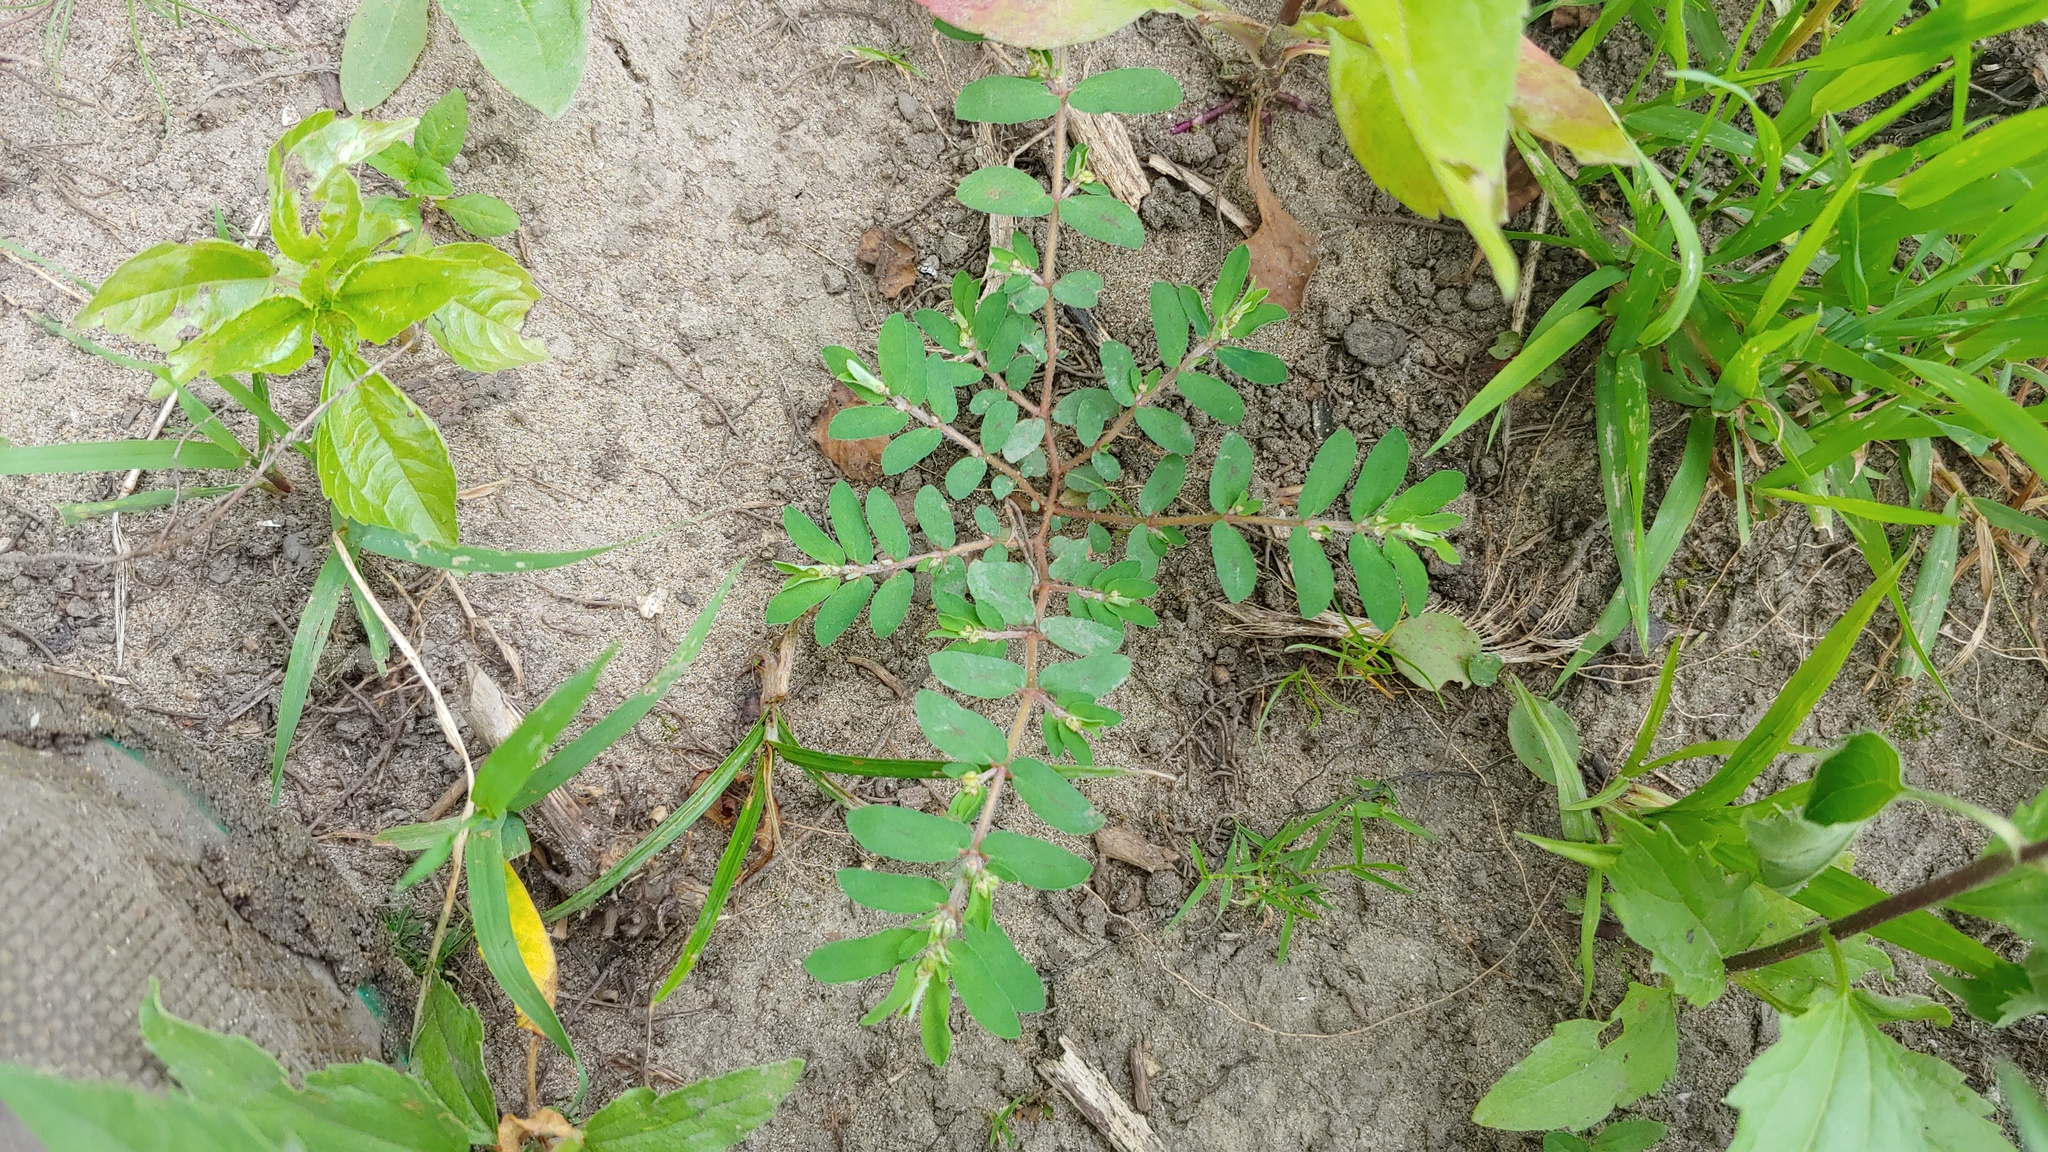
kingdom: Plantae
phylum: Tracheophyta
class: Magnoliopsida
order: Malpighiales
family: Euphorbiaceae
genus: Euphorbia
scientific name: Euphorbia maculata
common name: Spotted spurge
